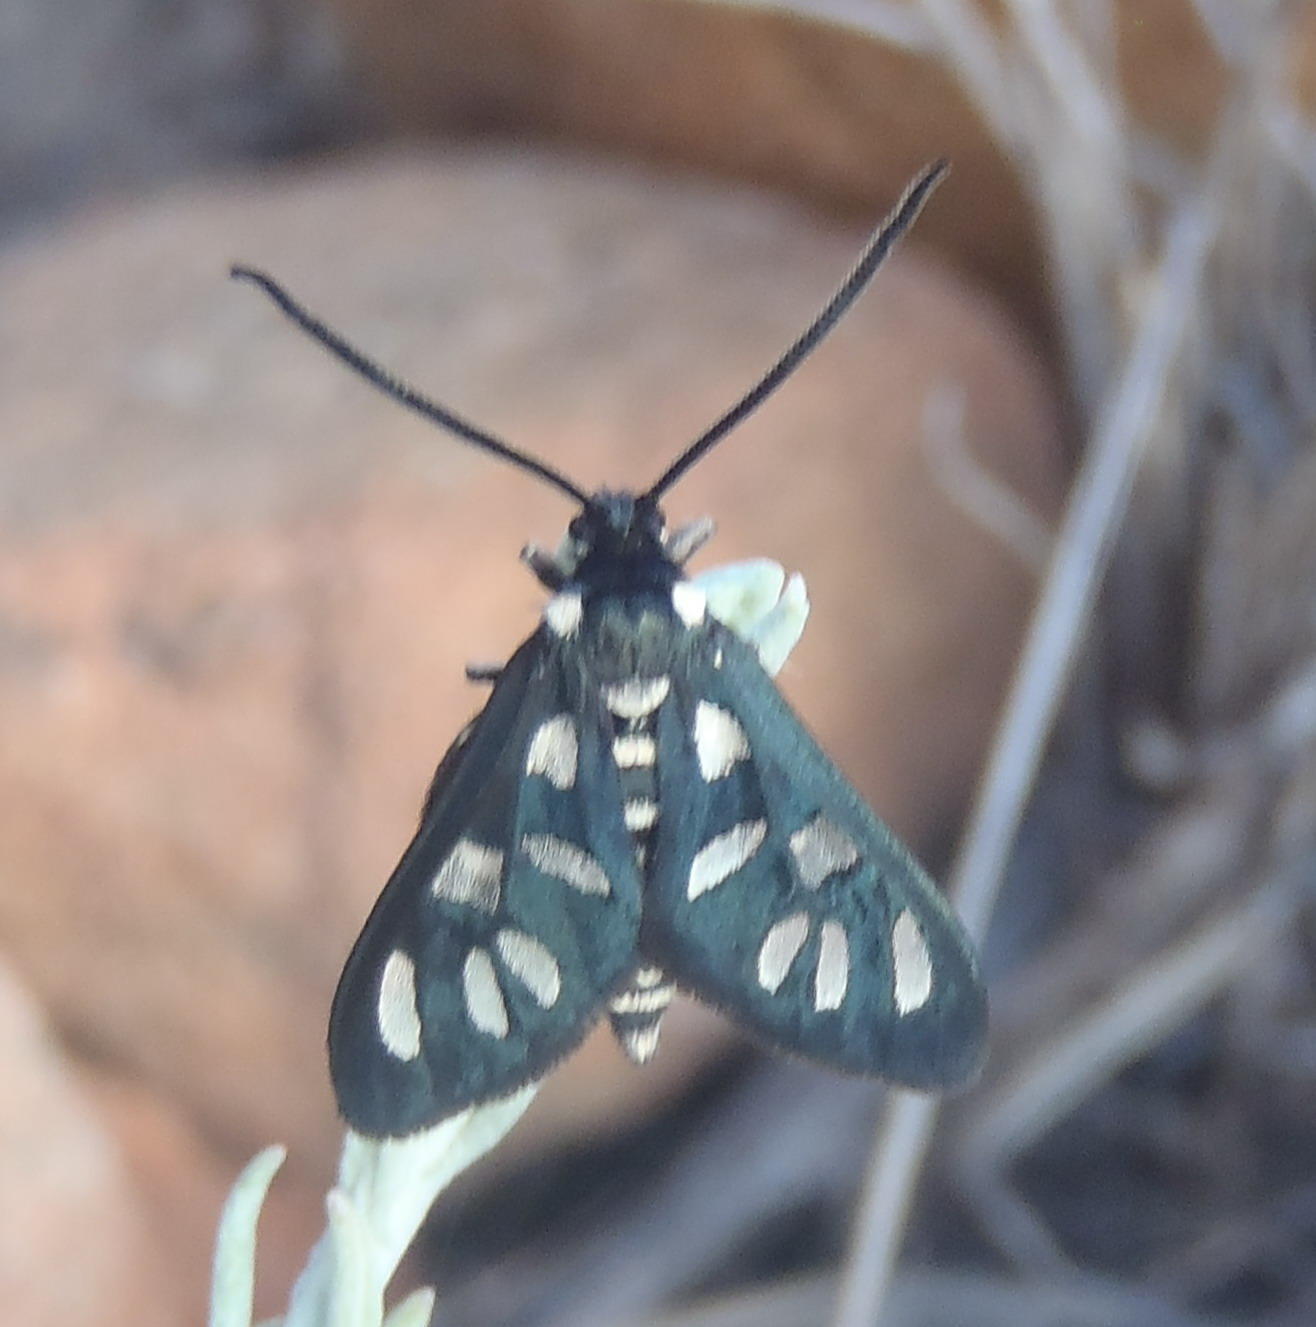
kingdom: Animalia
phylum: Arthropoda
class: Insecta
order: Lepidoptera
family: Erebidae
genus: Amata
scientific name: Amata khoisana
